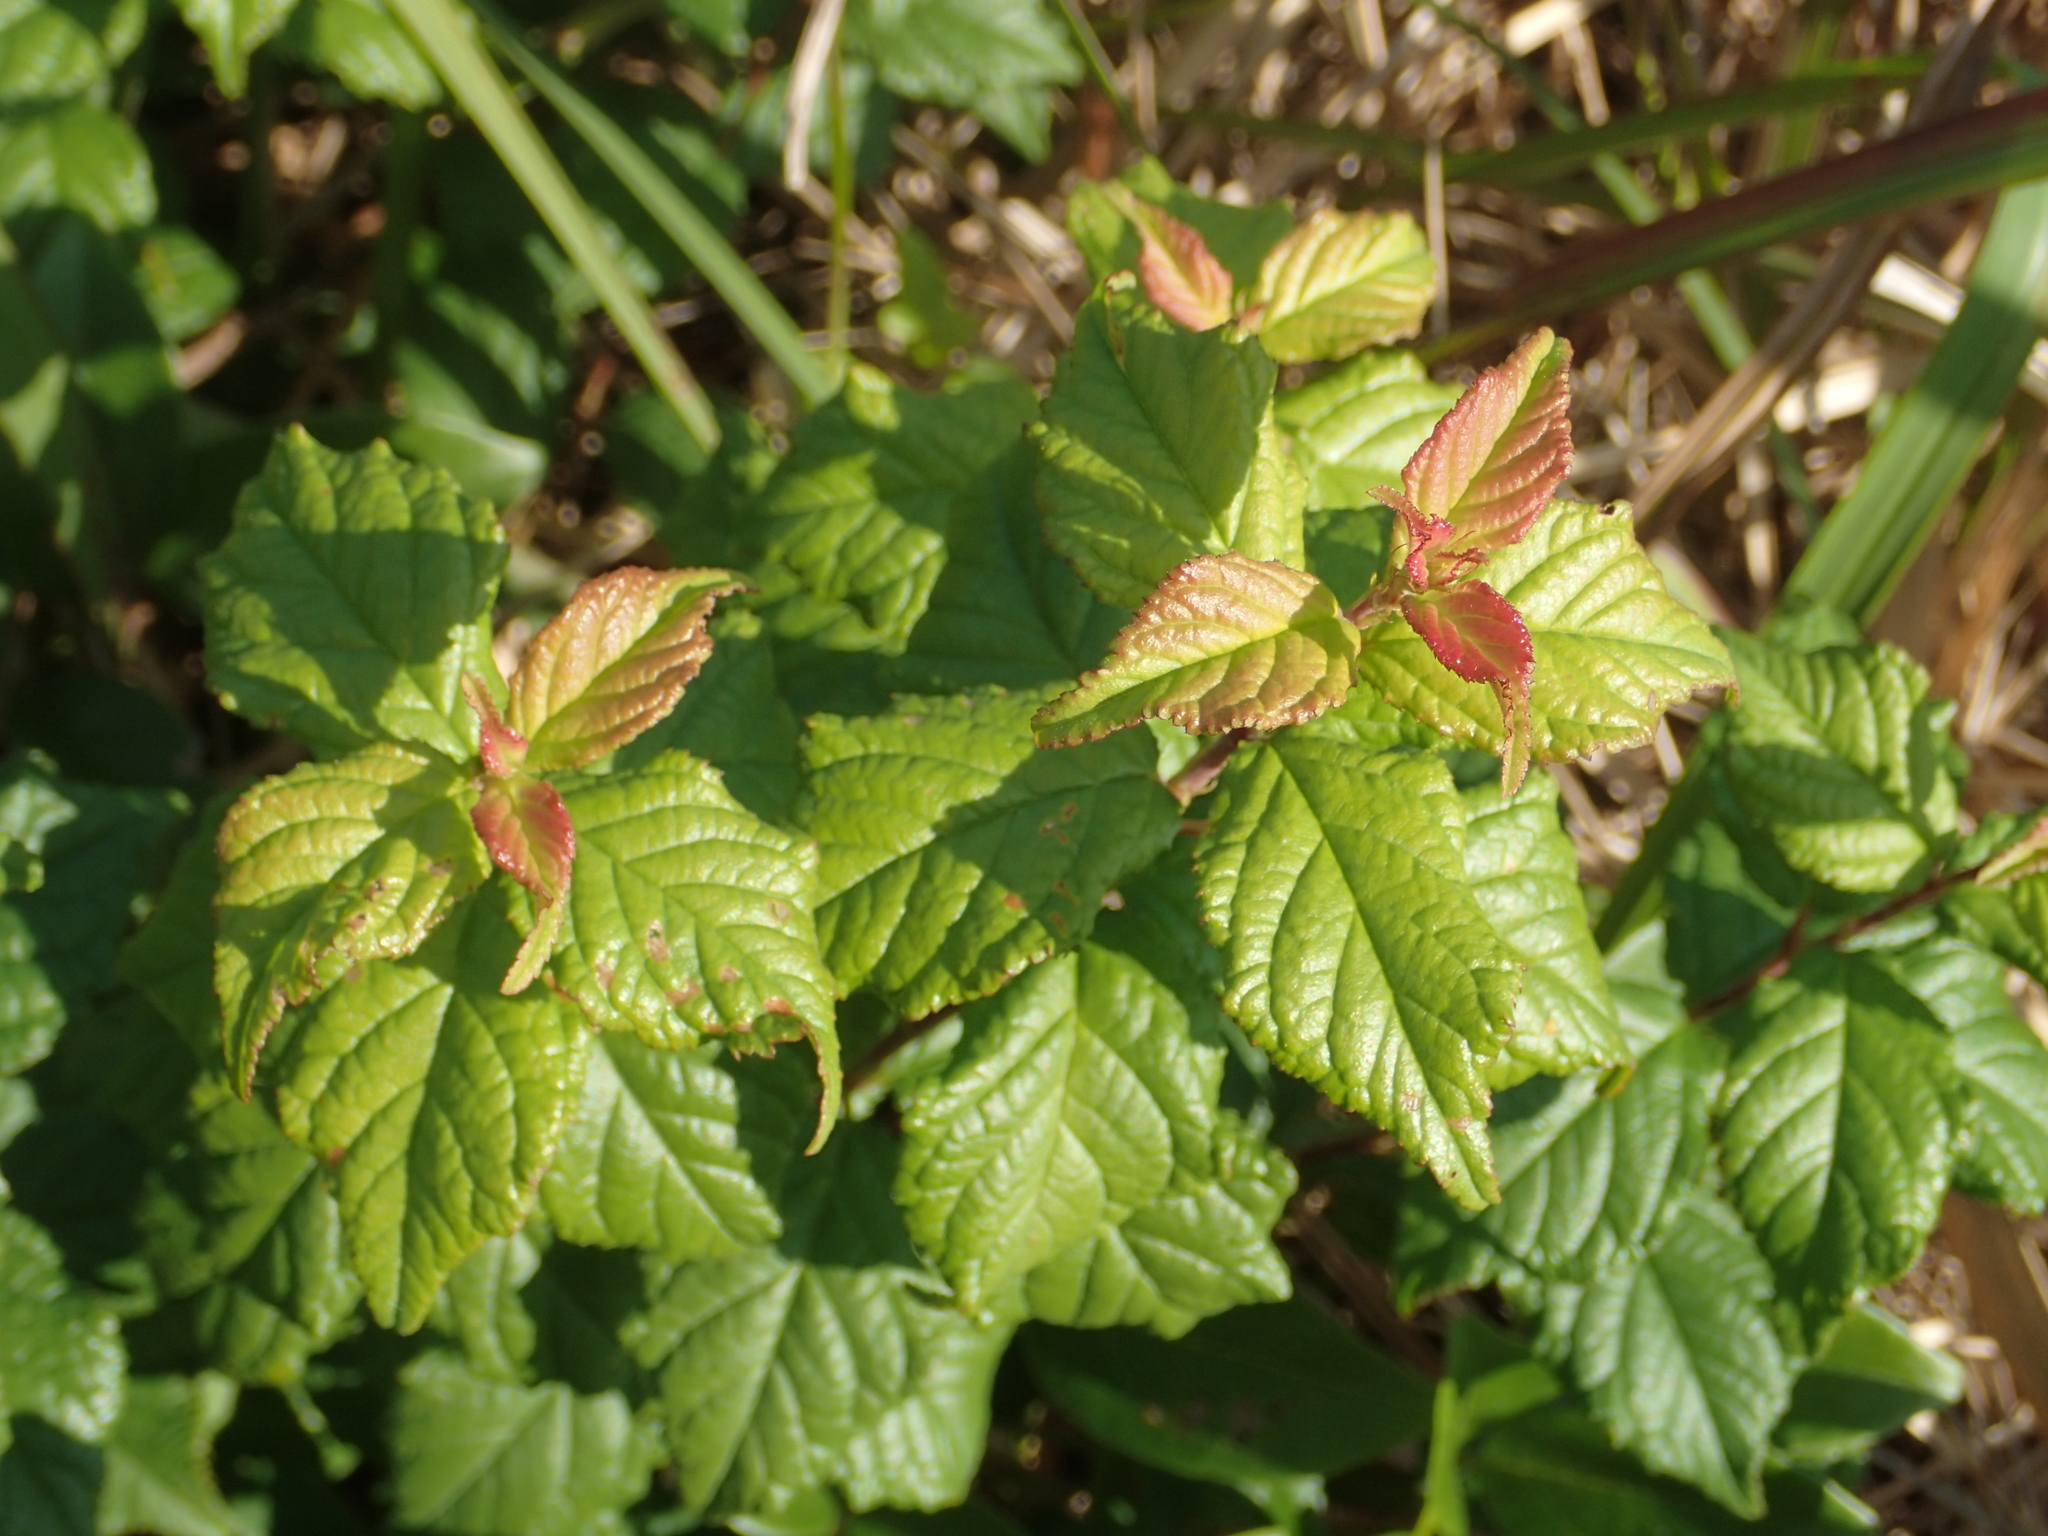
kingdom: Plantae
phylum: Tracheophyta
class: Magnoliopsida
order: Rosales
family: Rosaceae
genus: Prunus
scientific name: Prunus pogonostyla
